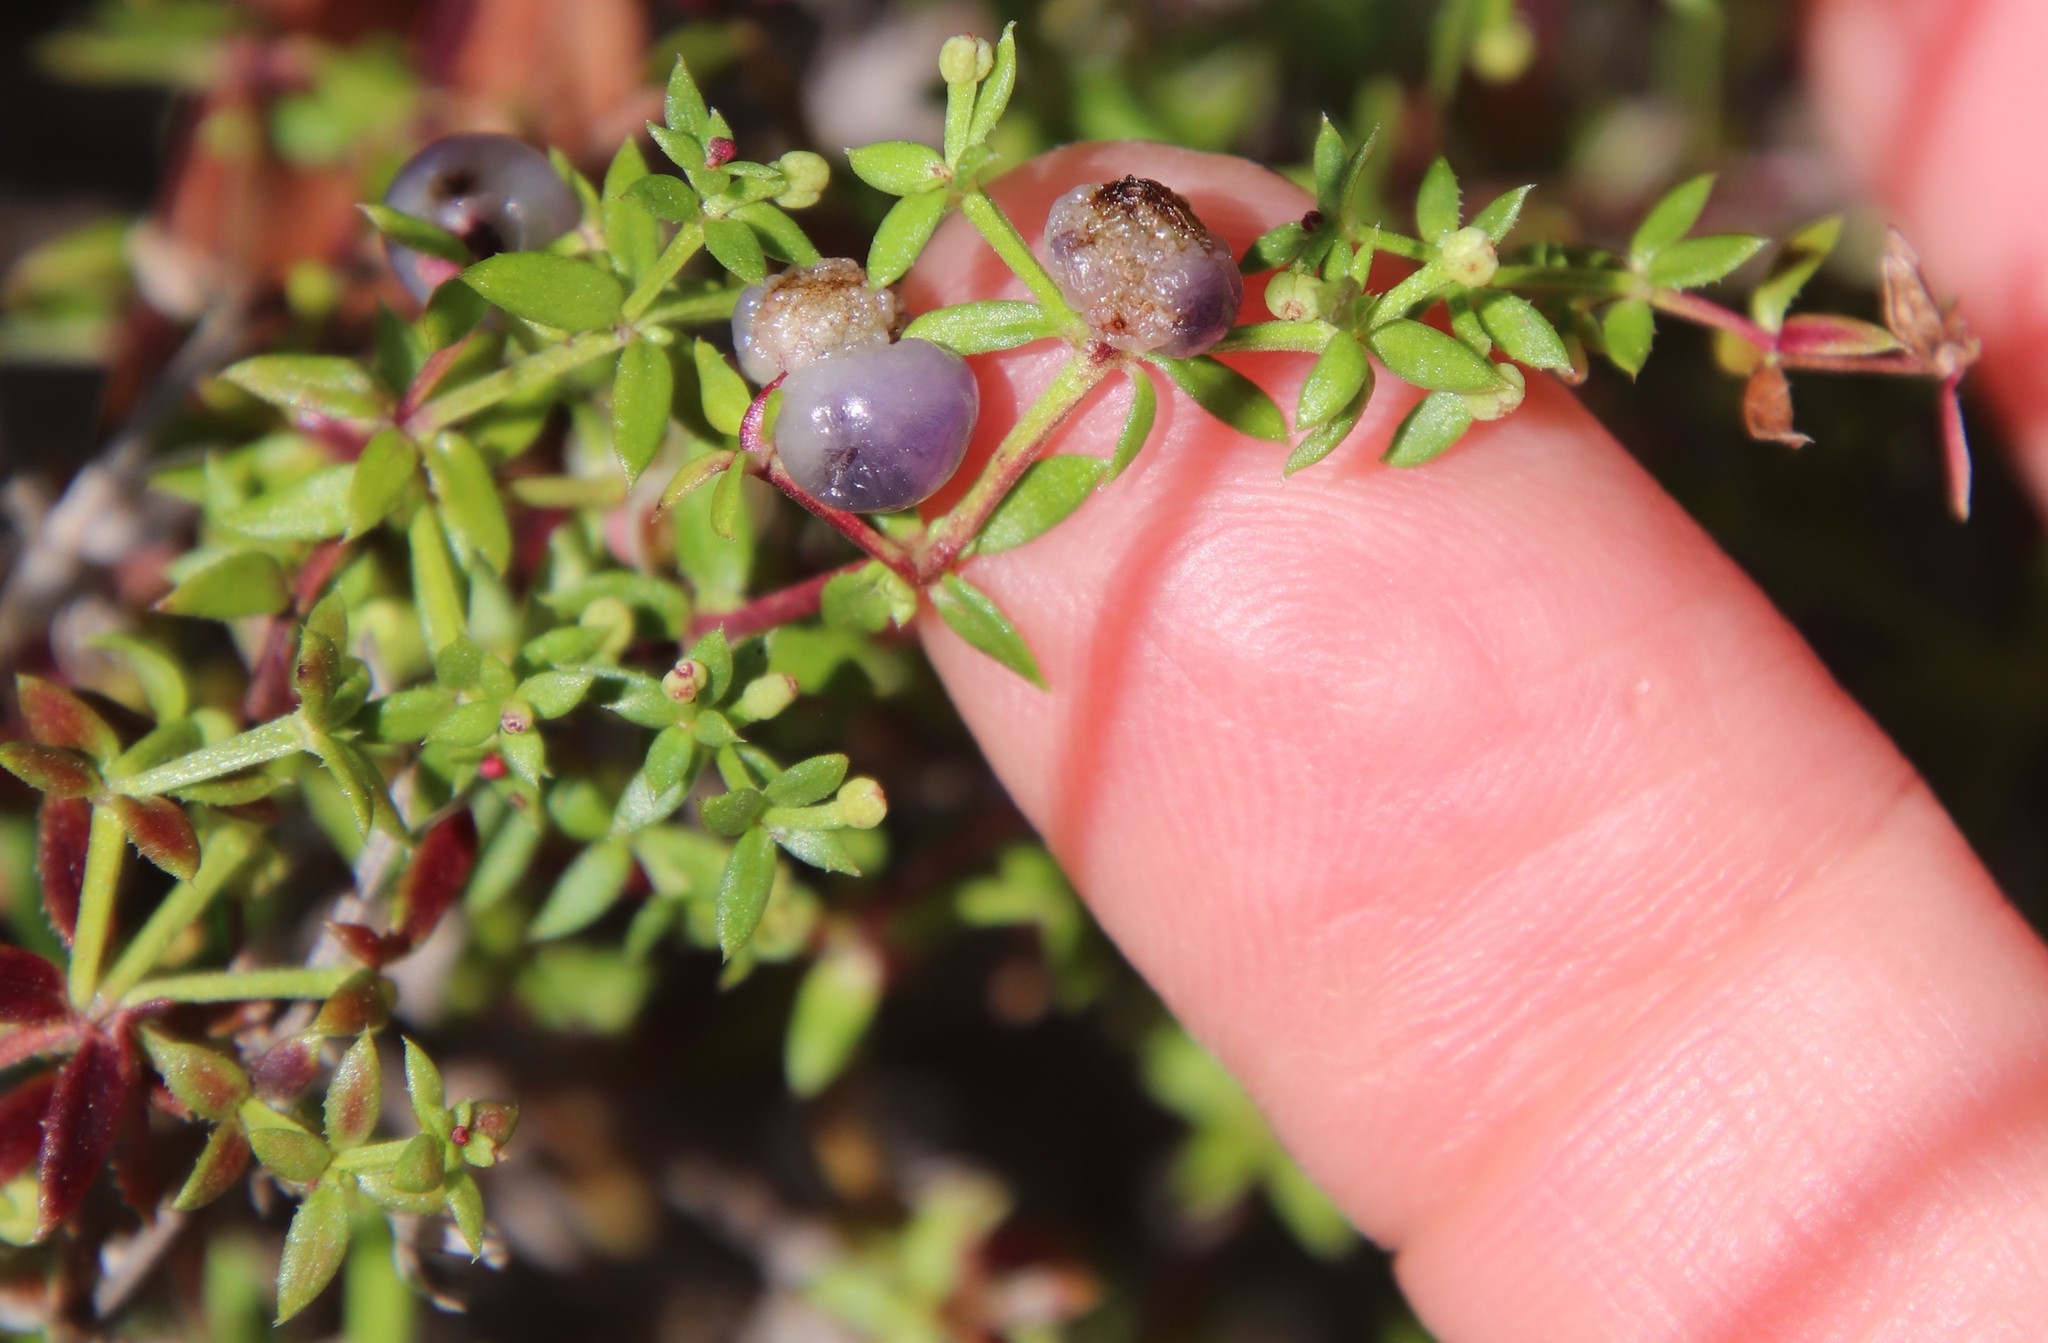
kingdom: Plantae
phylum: Tracheophyta
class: Magnoliopsida
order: Gentianales
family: Rubiaceae
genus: Galium
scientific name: Galium nuttallii
